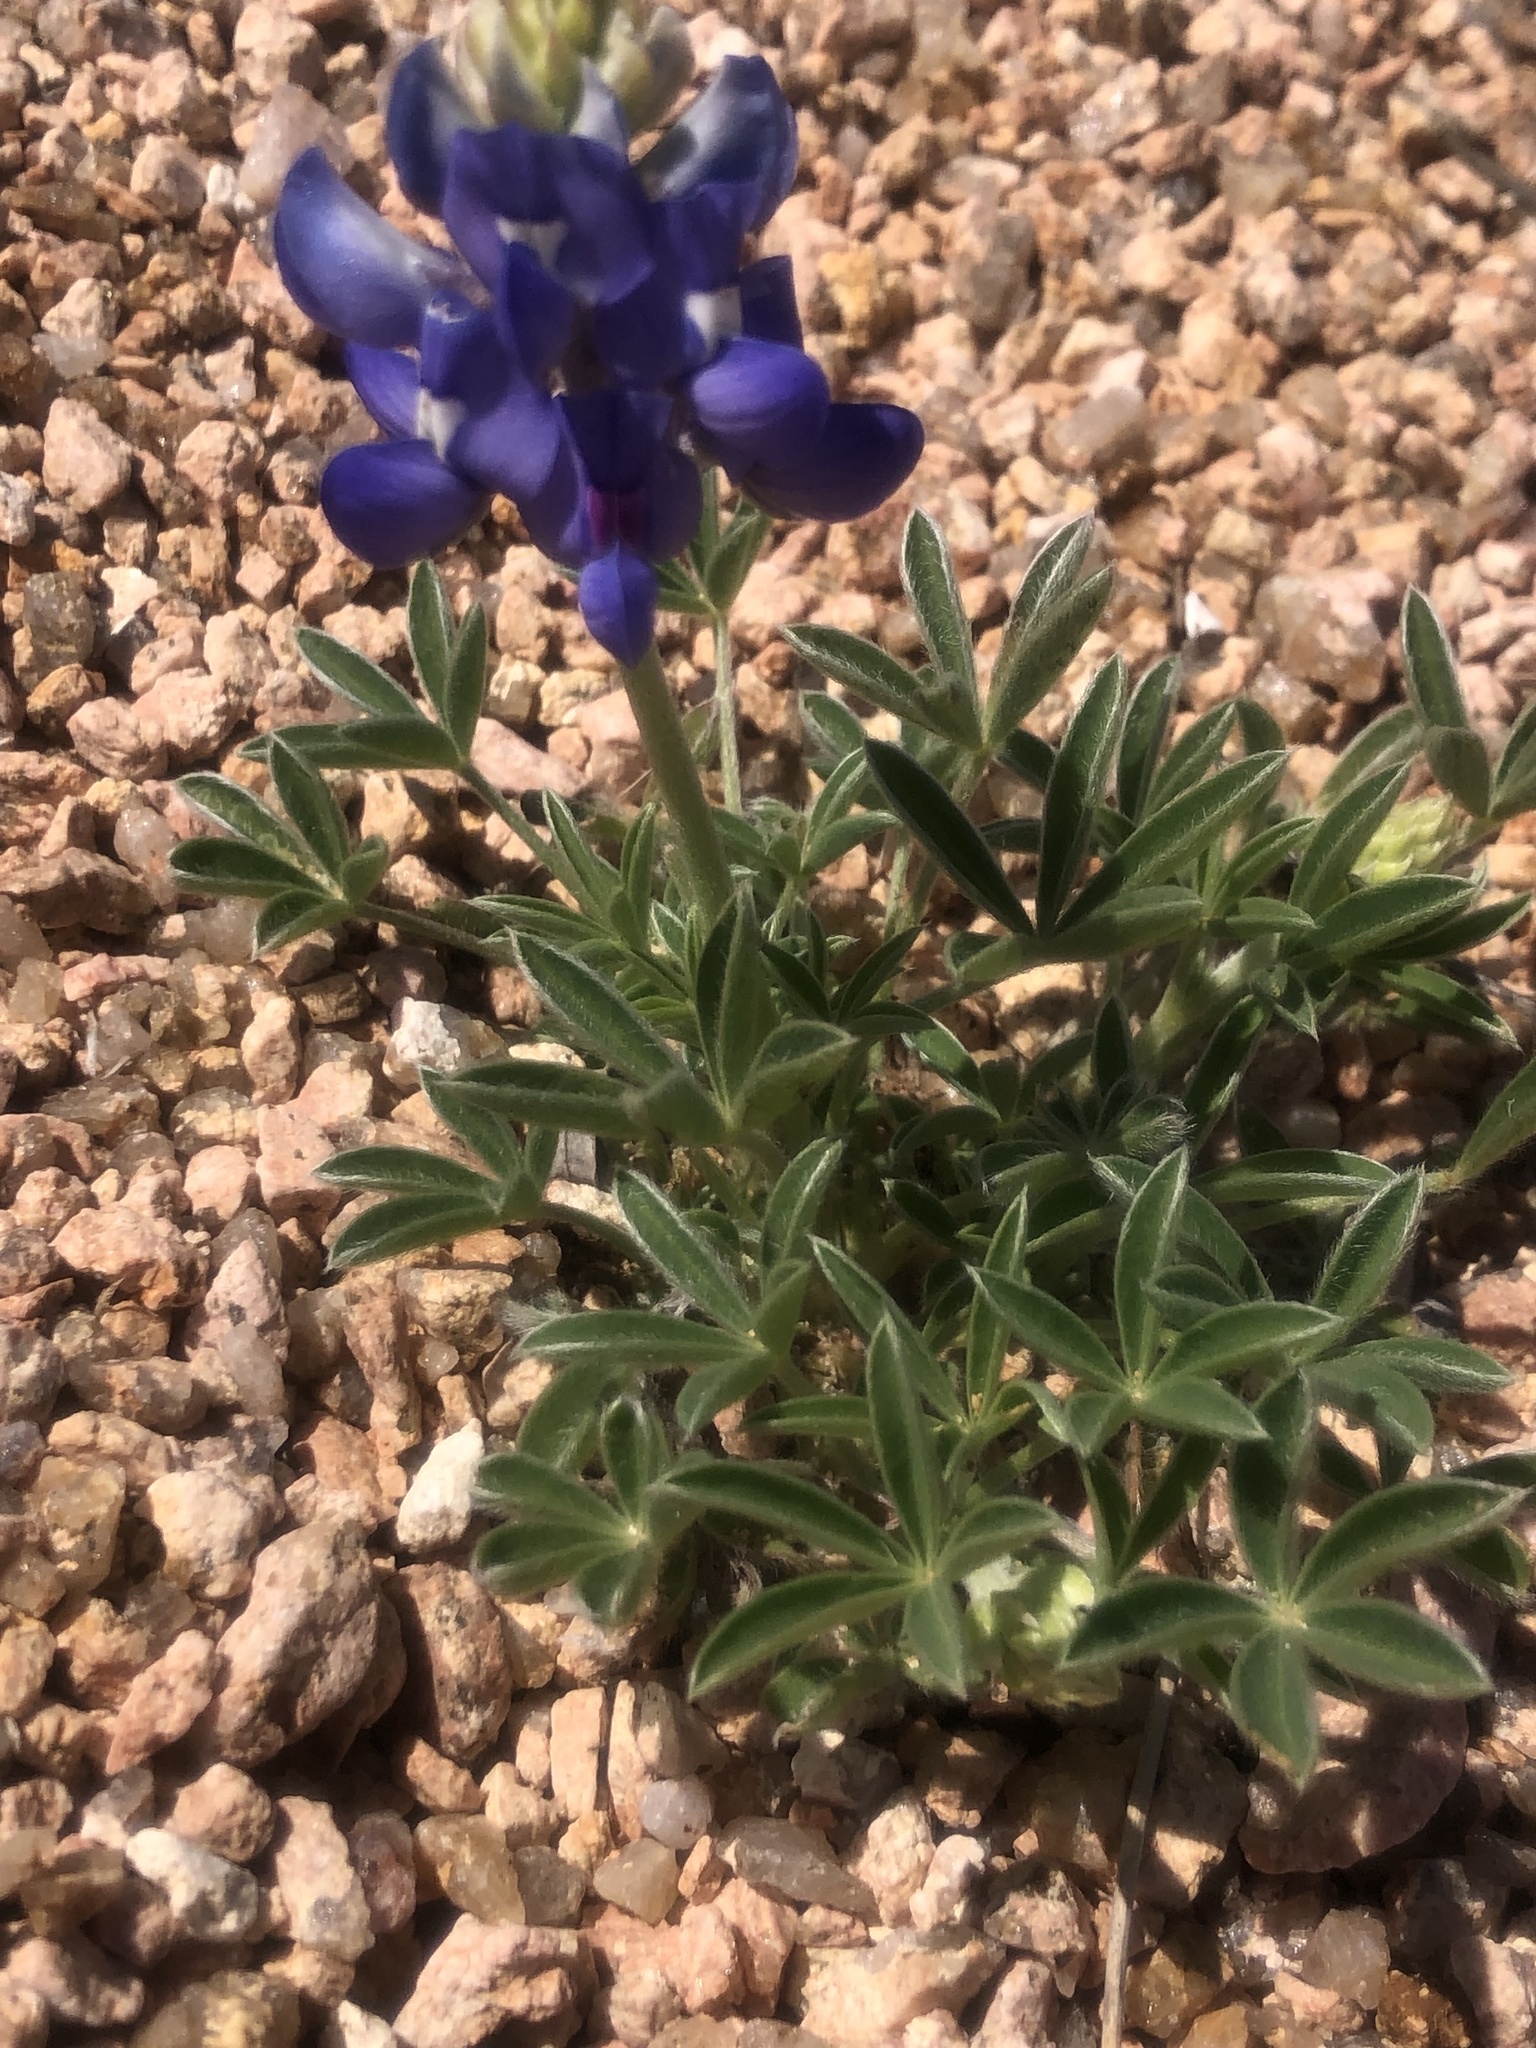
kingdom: Plantae
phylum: Tracheophyta
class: Magnoliopsida
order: Fabales
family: Fabaceae
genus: Lupinus
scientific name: Lupinus texensis
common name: Texas bluebonnet
